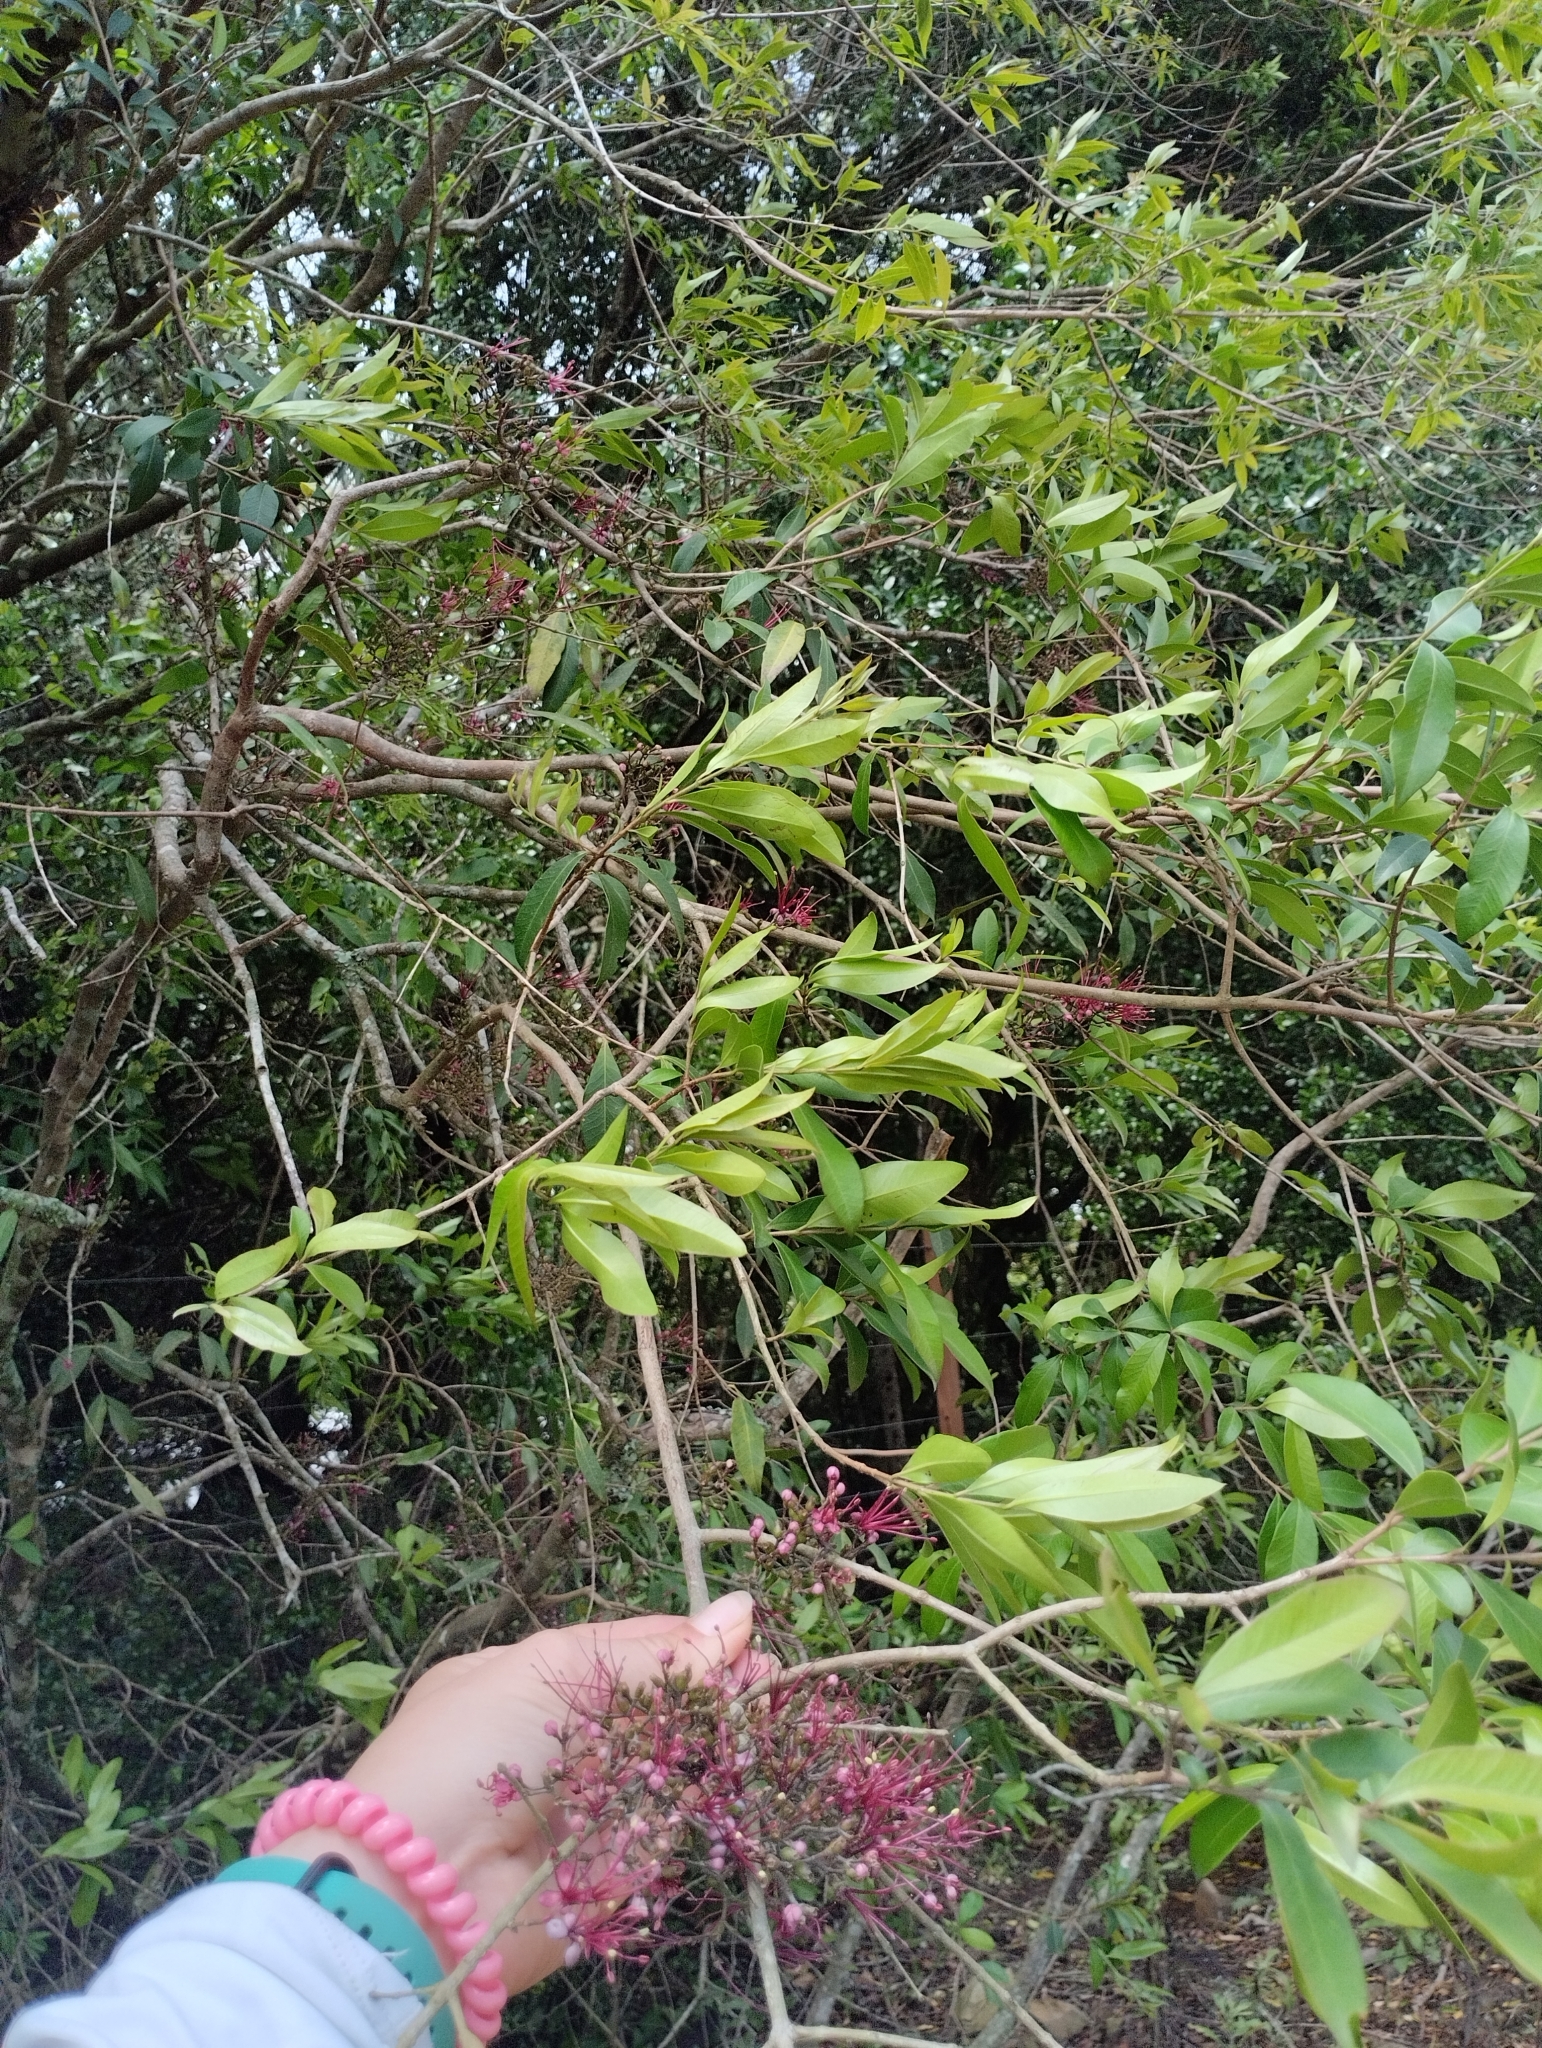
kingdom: Plantae
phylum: Tracheophyta
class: Magnoliopsida
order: Myrtales
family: Myrtaceae
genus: Myrrhinium
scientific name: Myrrhinium atropurpureum
